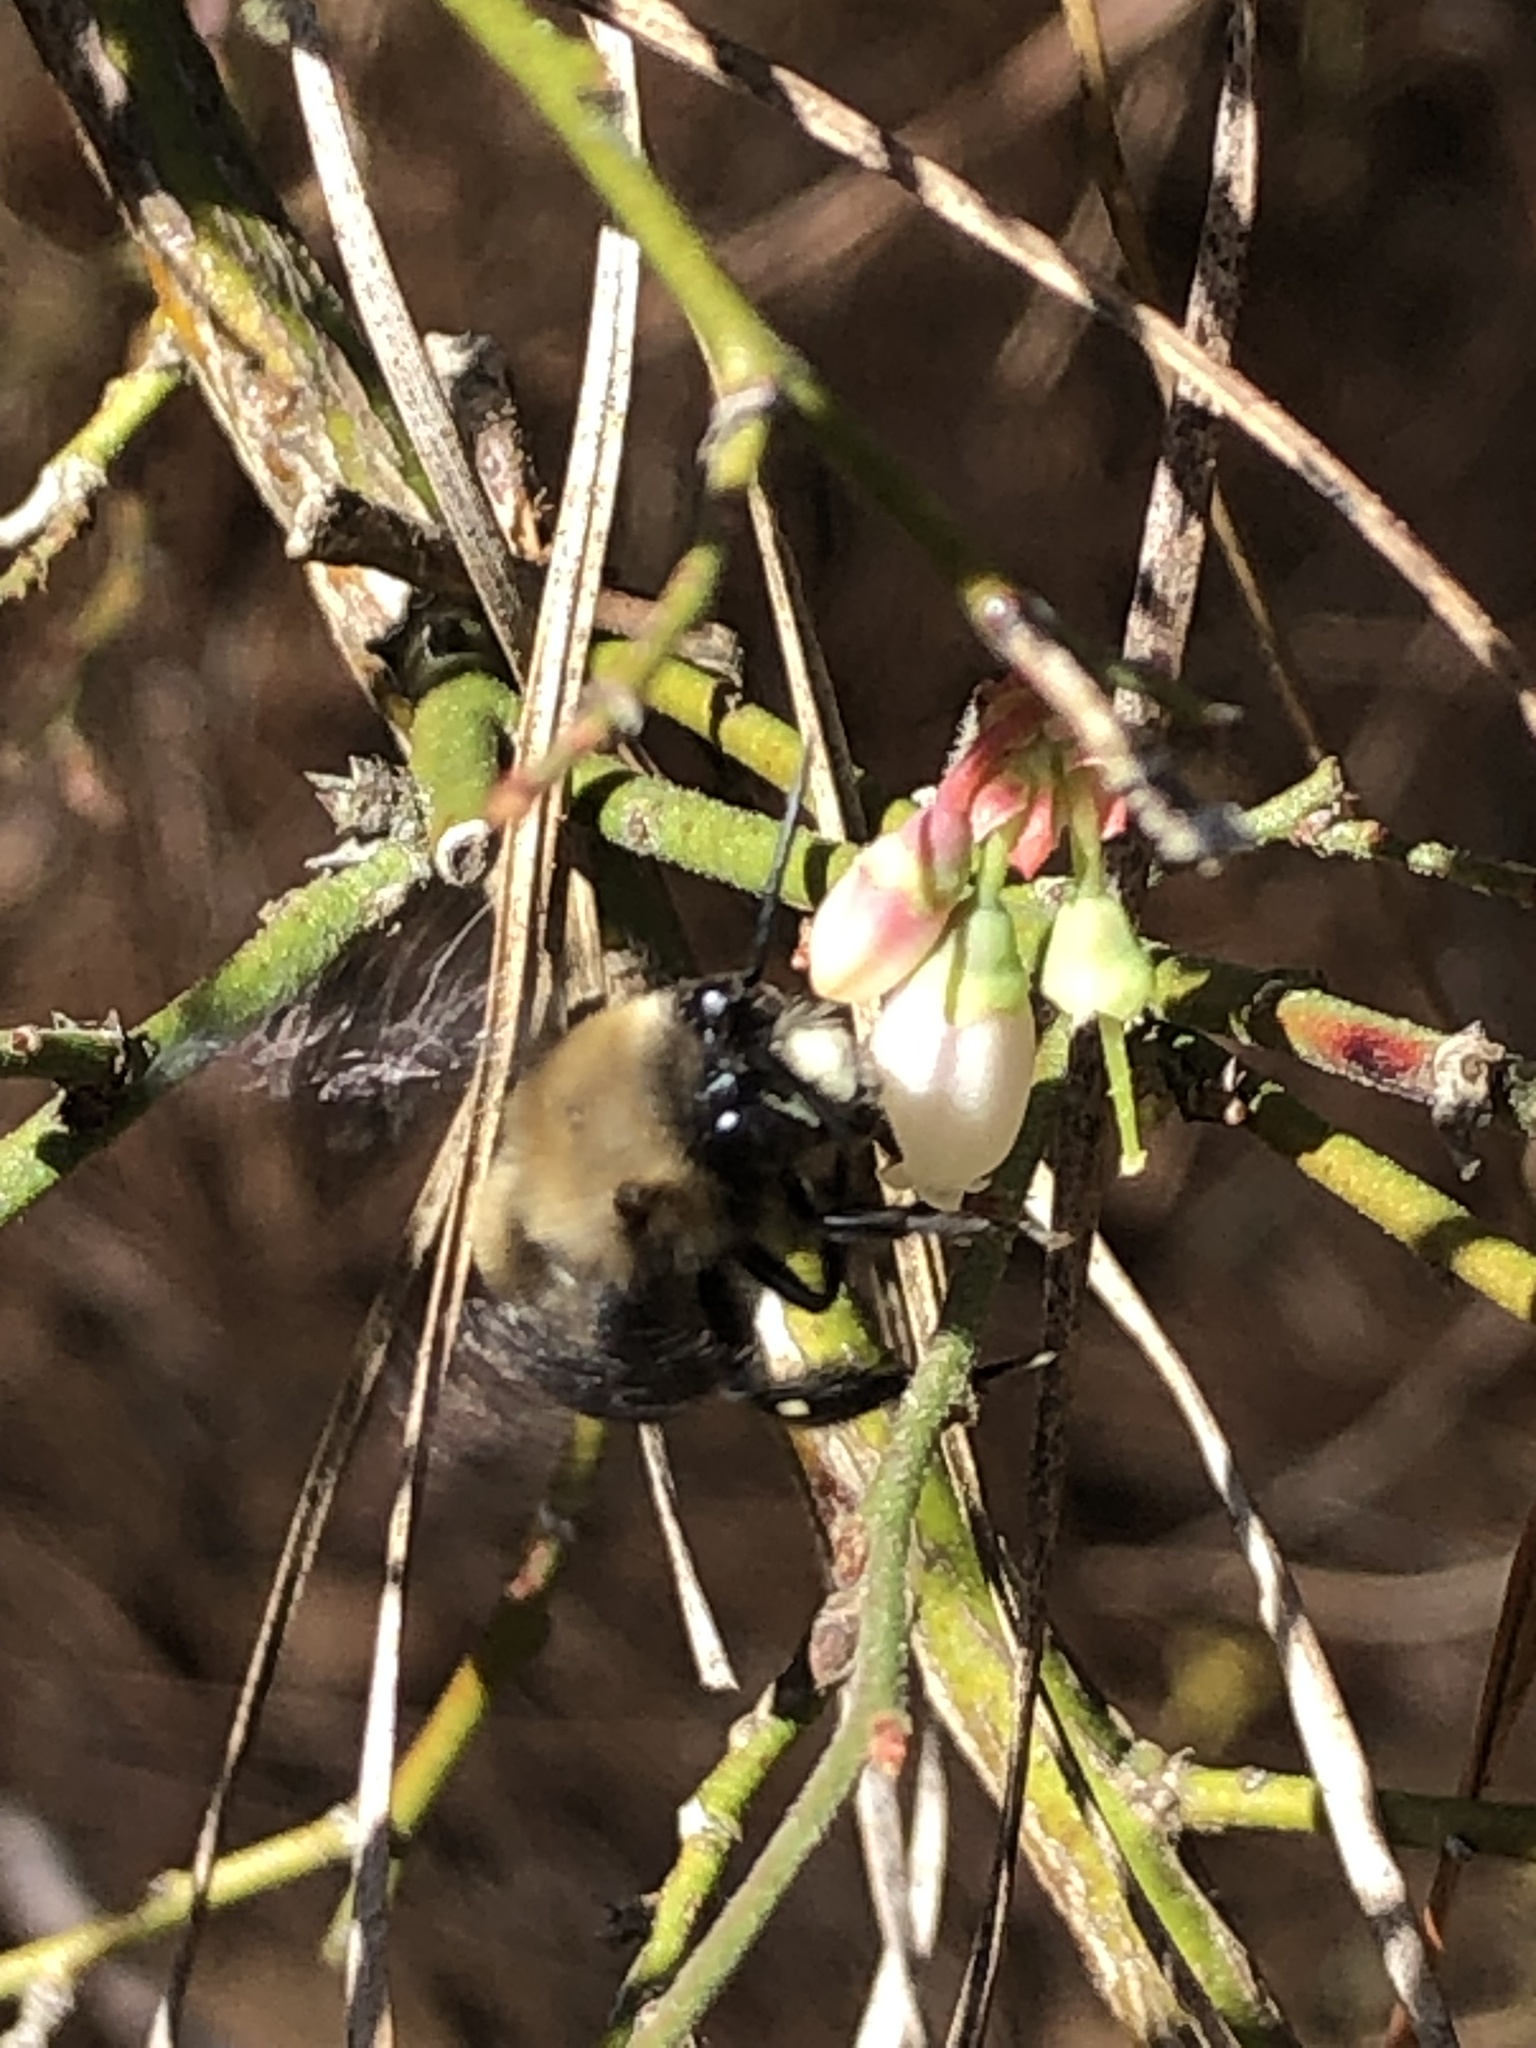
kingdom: Animalia
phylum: Arthropoda
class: Insecta
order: Hymenoptera
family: Apidae
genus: Habropoda
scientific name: Habropoda laboriosa
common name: Southeastern blueberry bee
